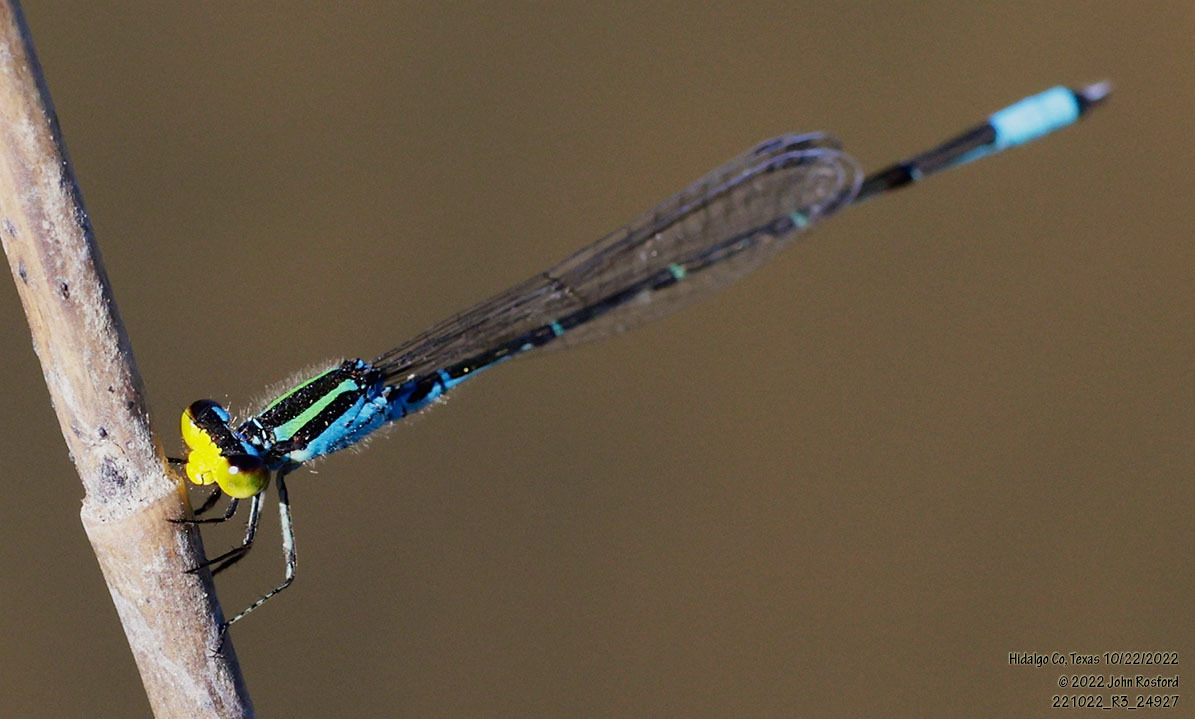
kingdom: Animalia
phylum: Arthropoda
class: Insecta
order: Odonata
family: Coenagrionidae
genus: Neoerythromma
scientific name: Neoerythromma cultellatum
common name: Caribbean yellowface
